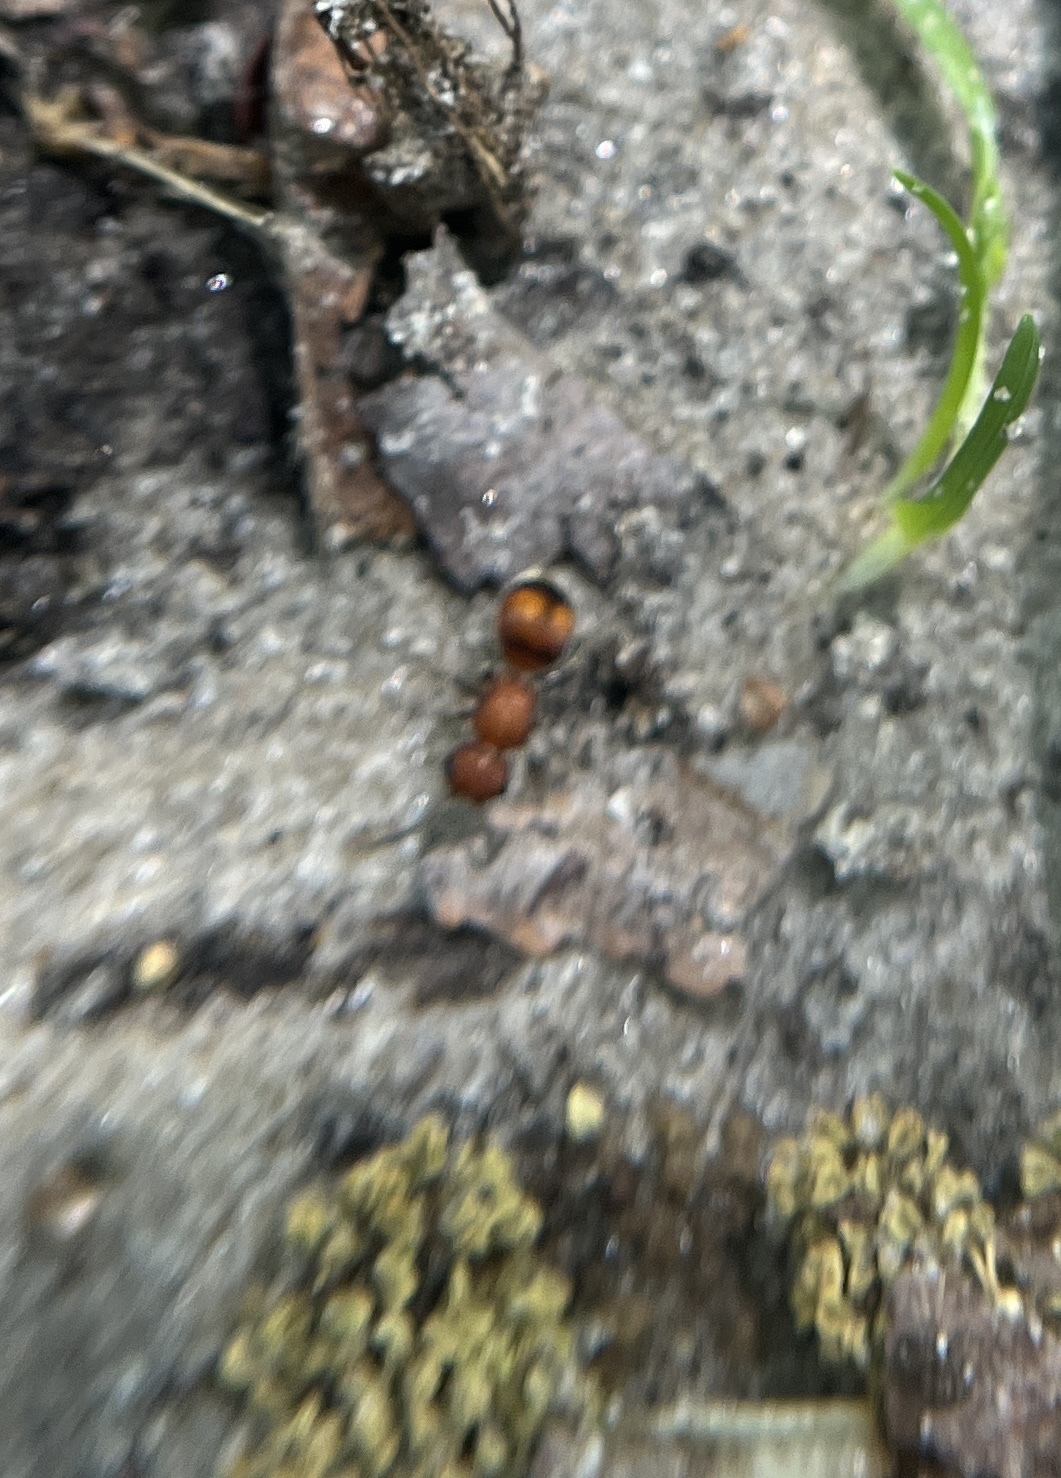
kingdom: Animalia
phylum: Arthropoda
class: Insecta
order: Hymenoptera
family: Mutillidae
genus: Pseudomethoca
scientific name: Pseudomethoca
